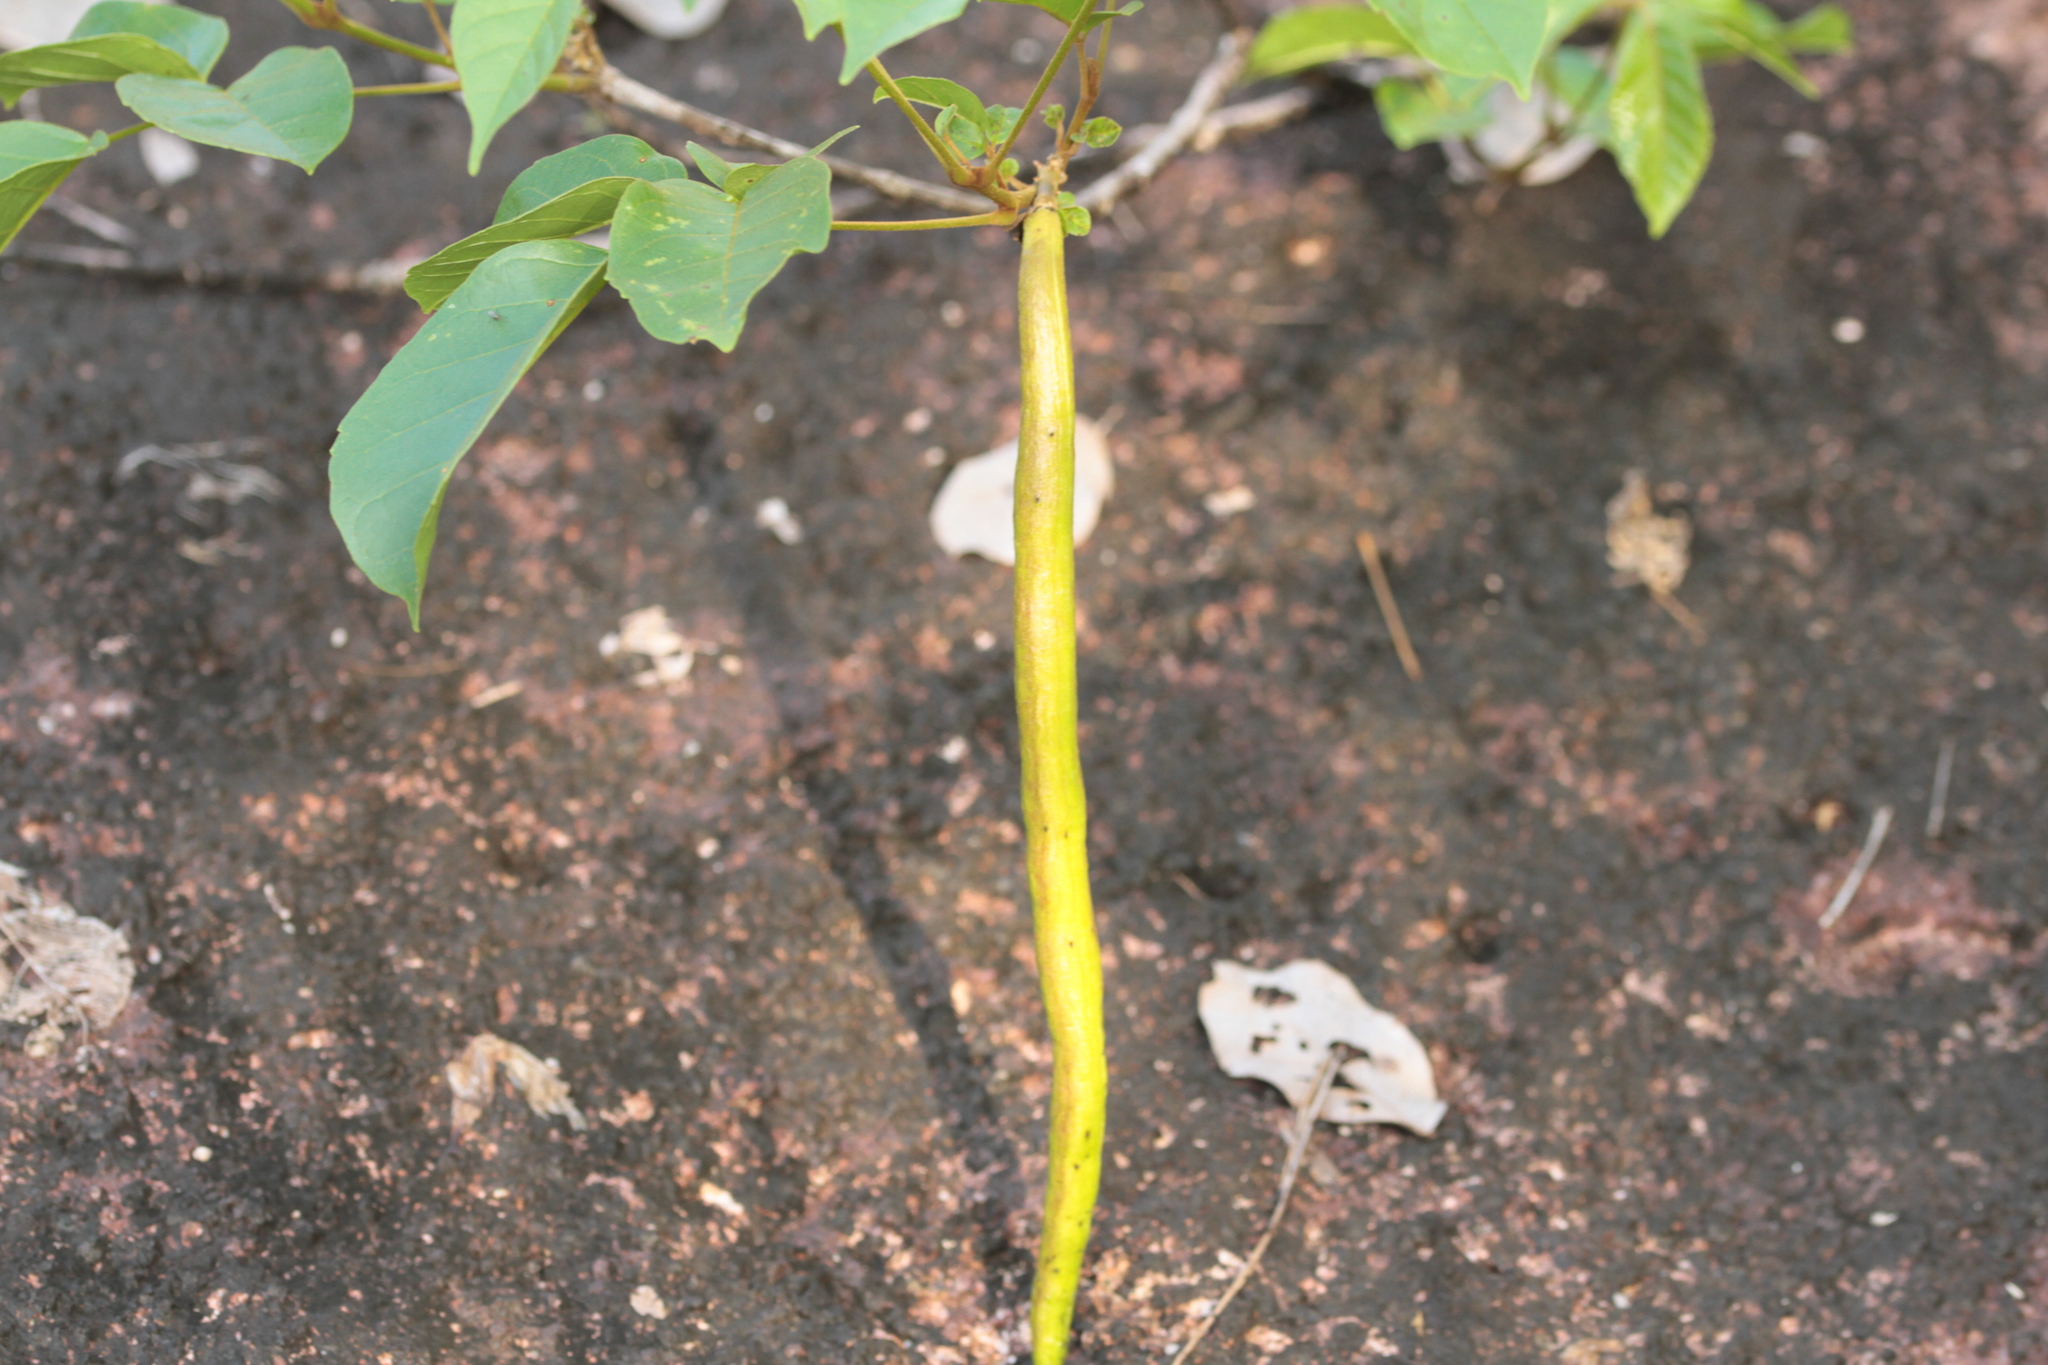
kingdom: Plantae
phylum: Tracheophyta
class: Magnoliopsida
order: Lamiales
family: Bignoniaceae
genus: Handroanthus
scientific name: Handroanthus capitatus
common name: Trumpet trees
